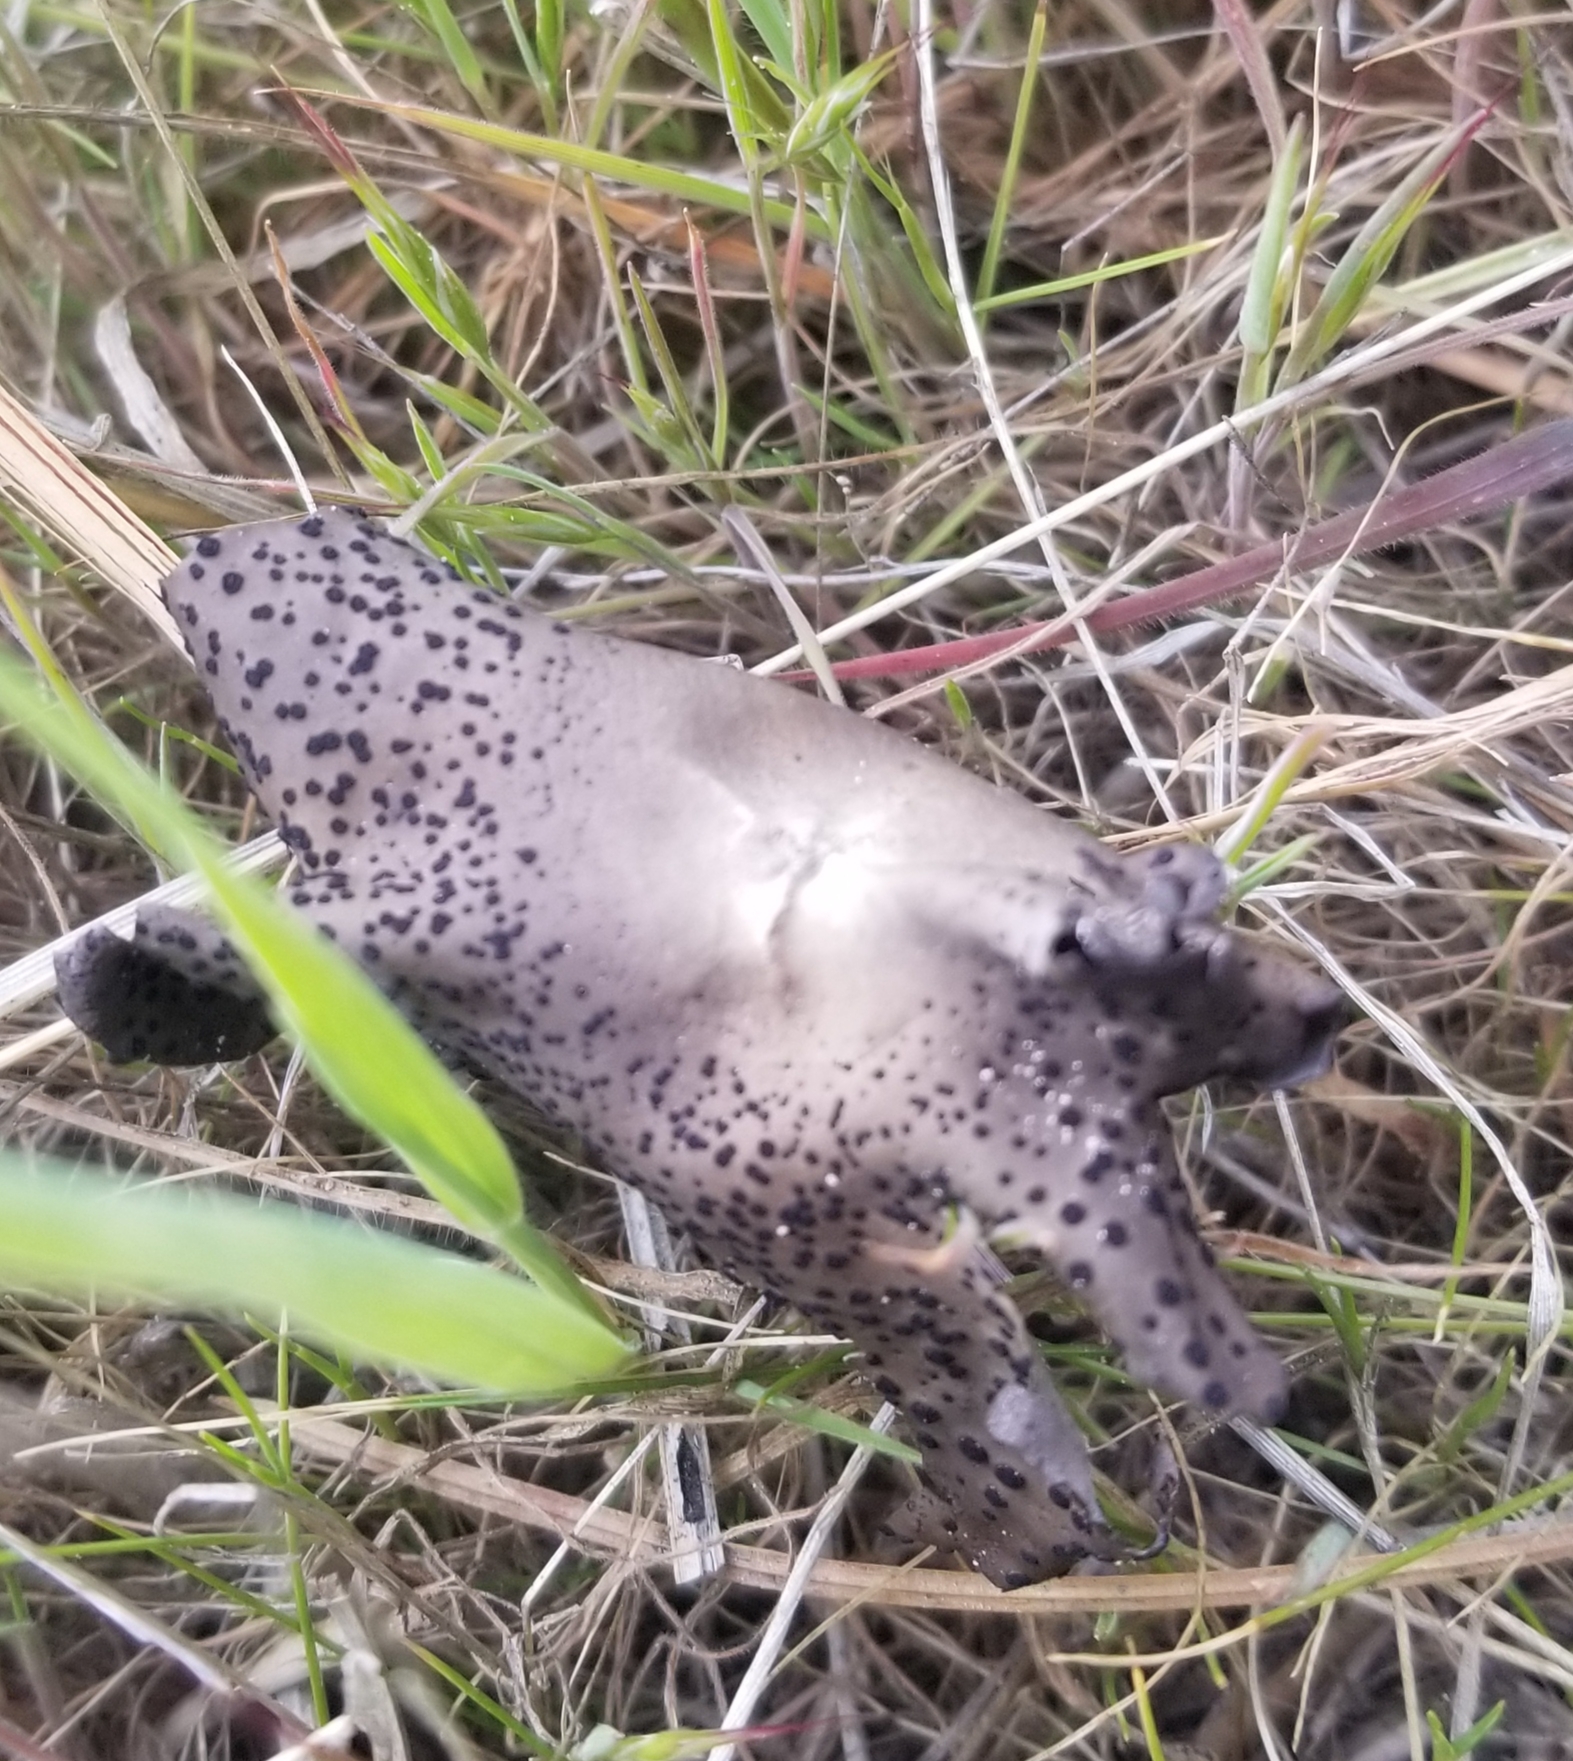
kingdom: Fungi
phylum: Ascomycota
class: Lecanoromycetes
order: Umbilicariales
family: Umbilicariaceae
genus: Umbilicaria
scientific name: Umbilicaria phaea
